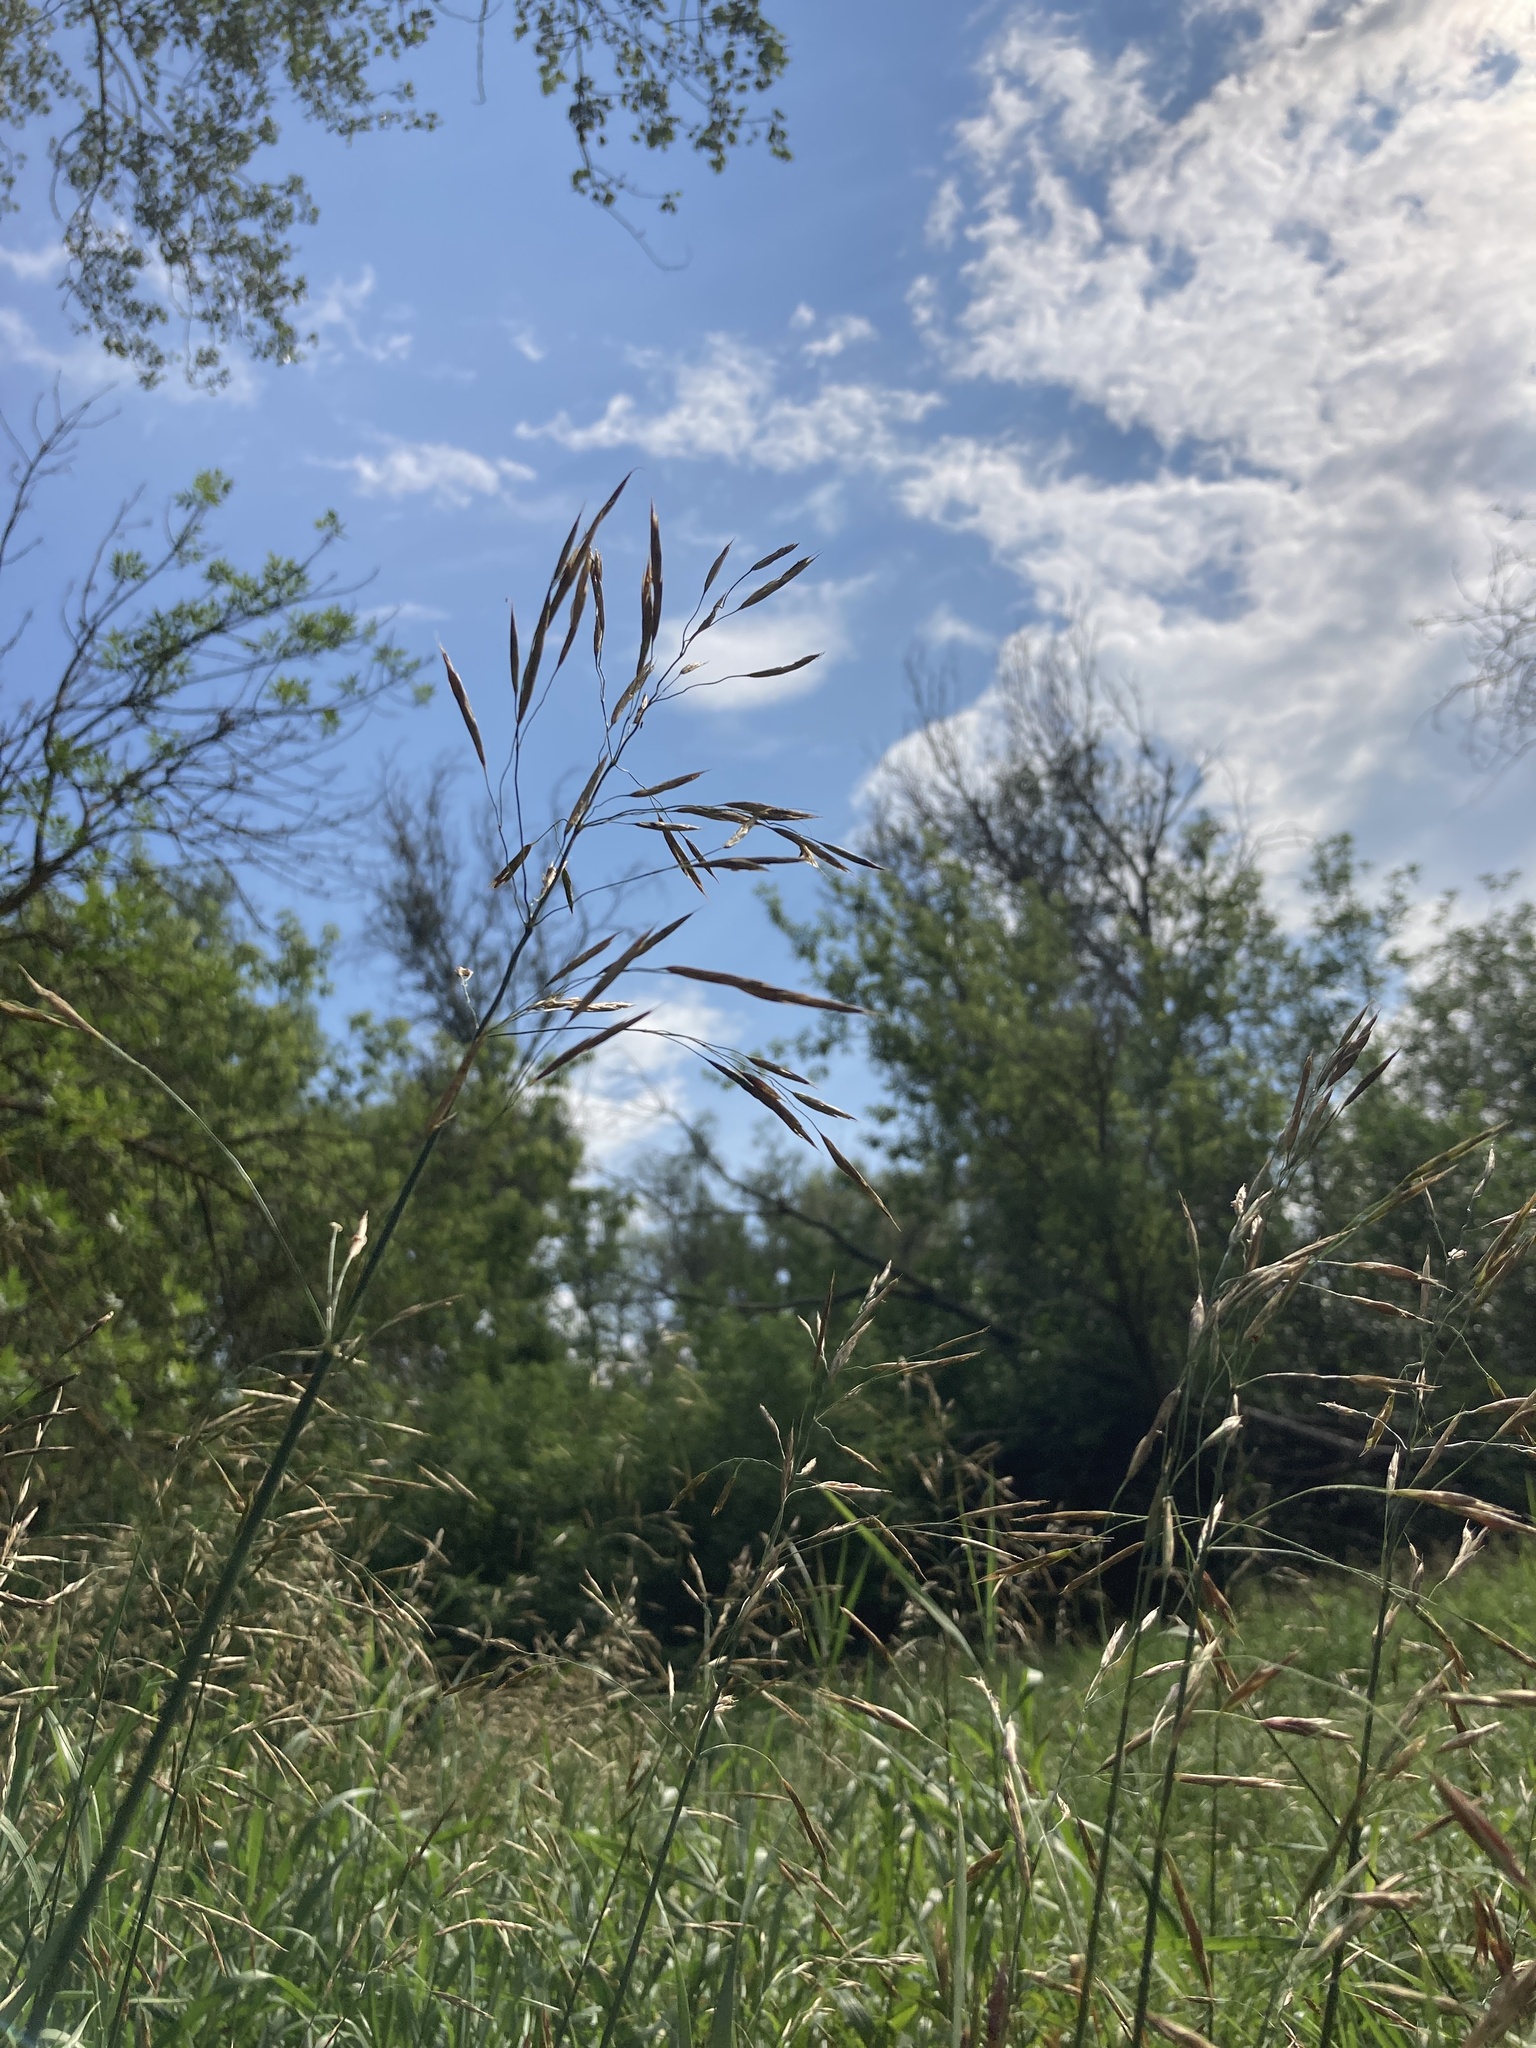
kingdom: Plantae
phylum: Tracheophyta
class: Liliopsida
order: Poales
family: Poaceae
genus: Bromus
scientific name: Bromus inermis
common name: Smooth brome
